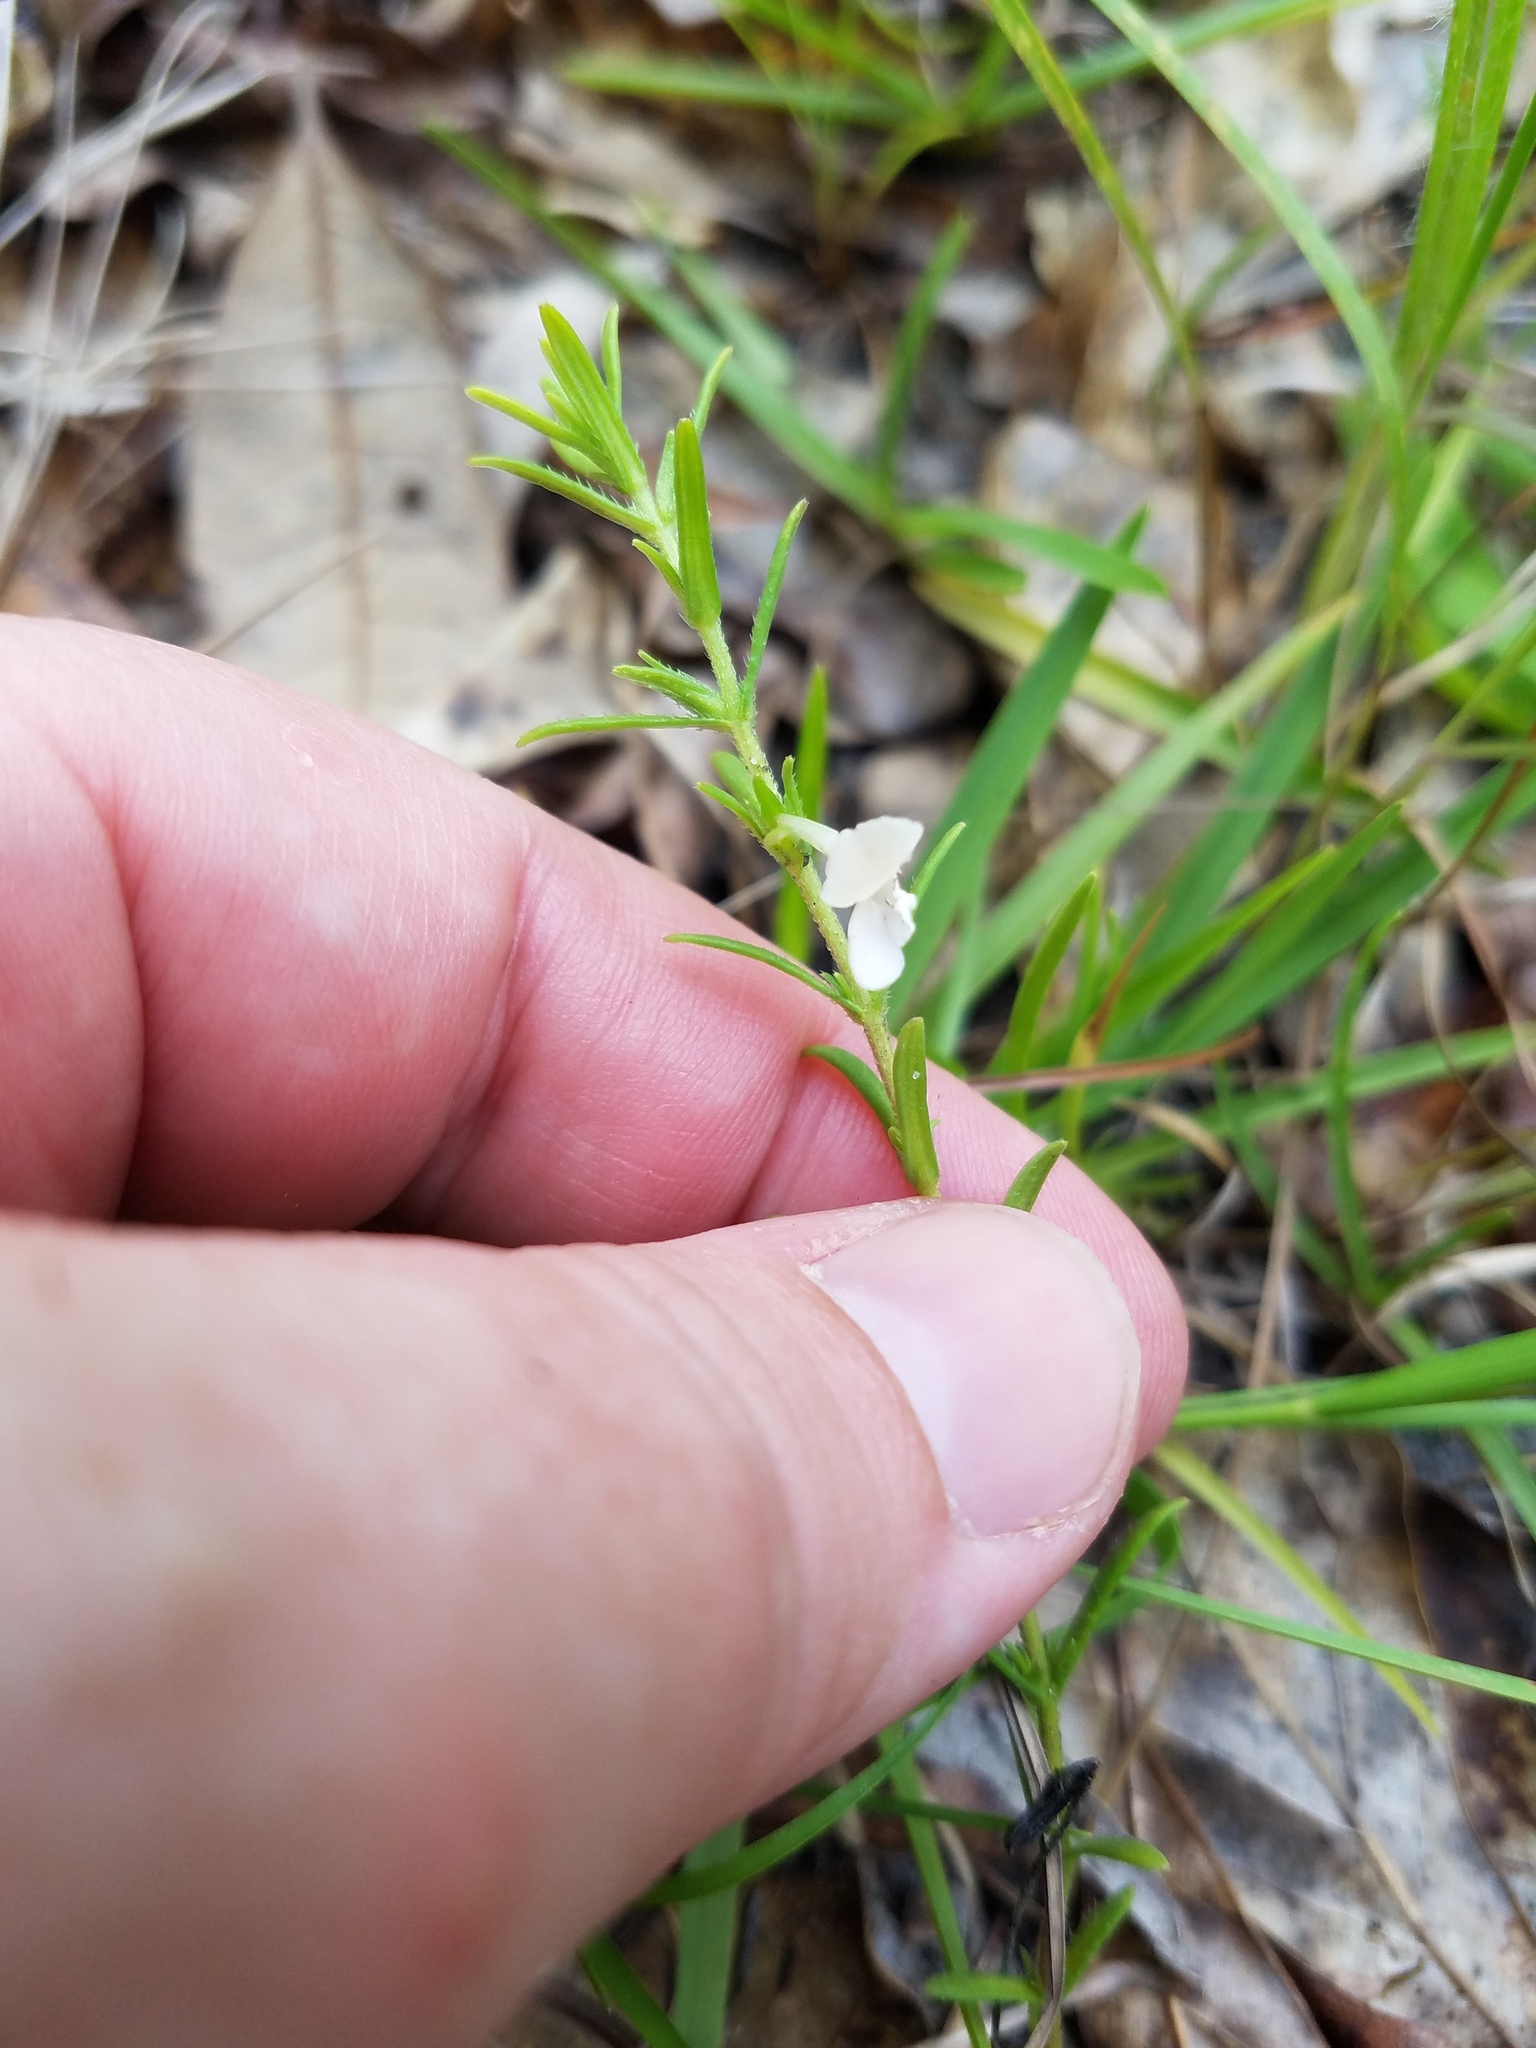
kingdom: Plantae
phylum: Tracheophyta
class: Magnoliopsida
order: Lamiales
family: Plantaginaceae
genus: Gratiola
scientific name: Gratiola hispida
